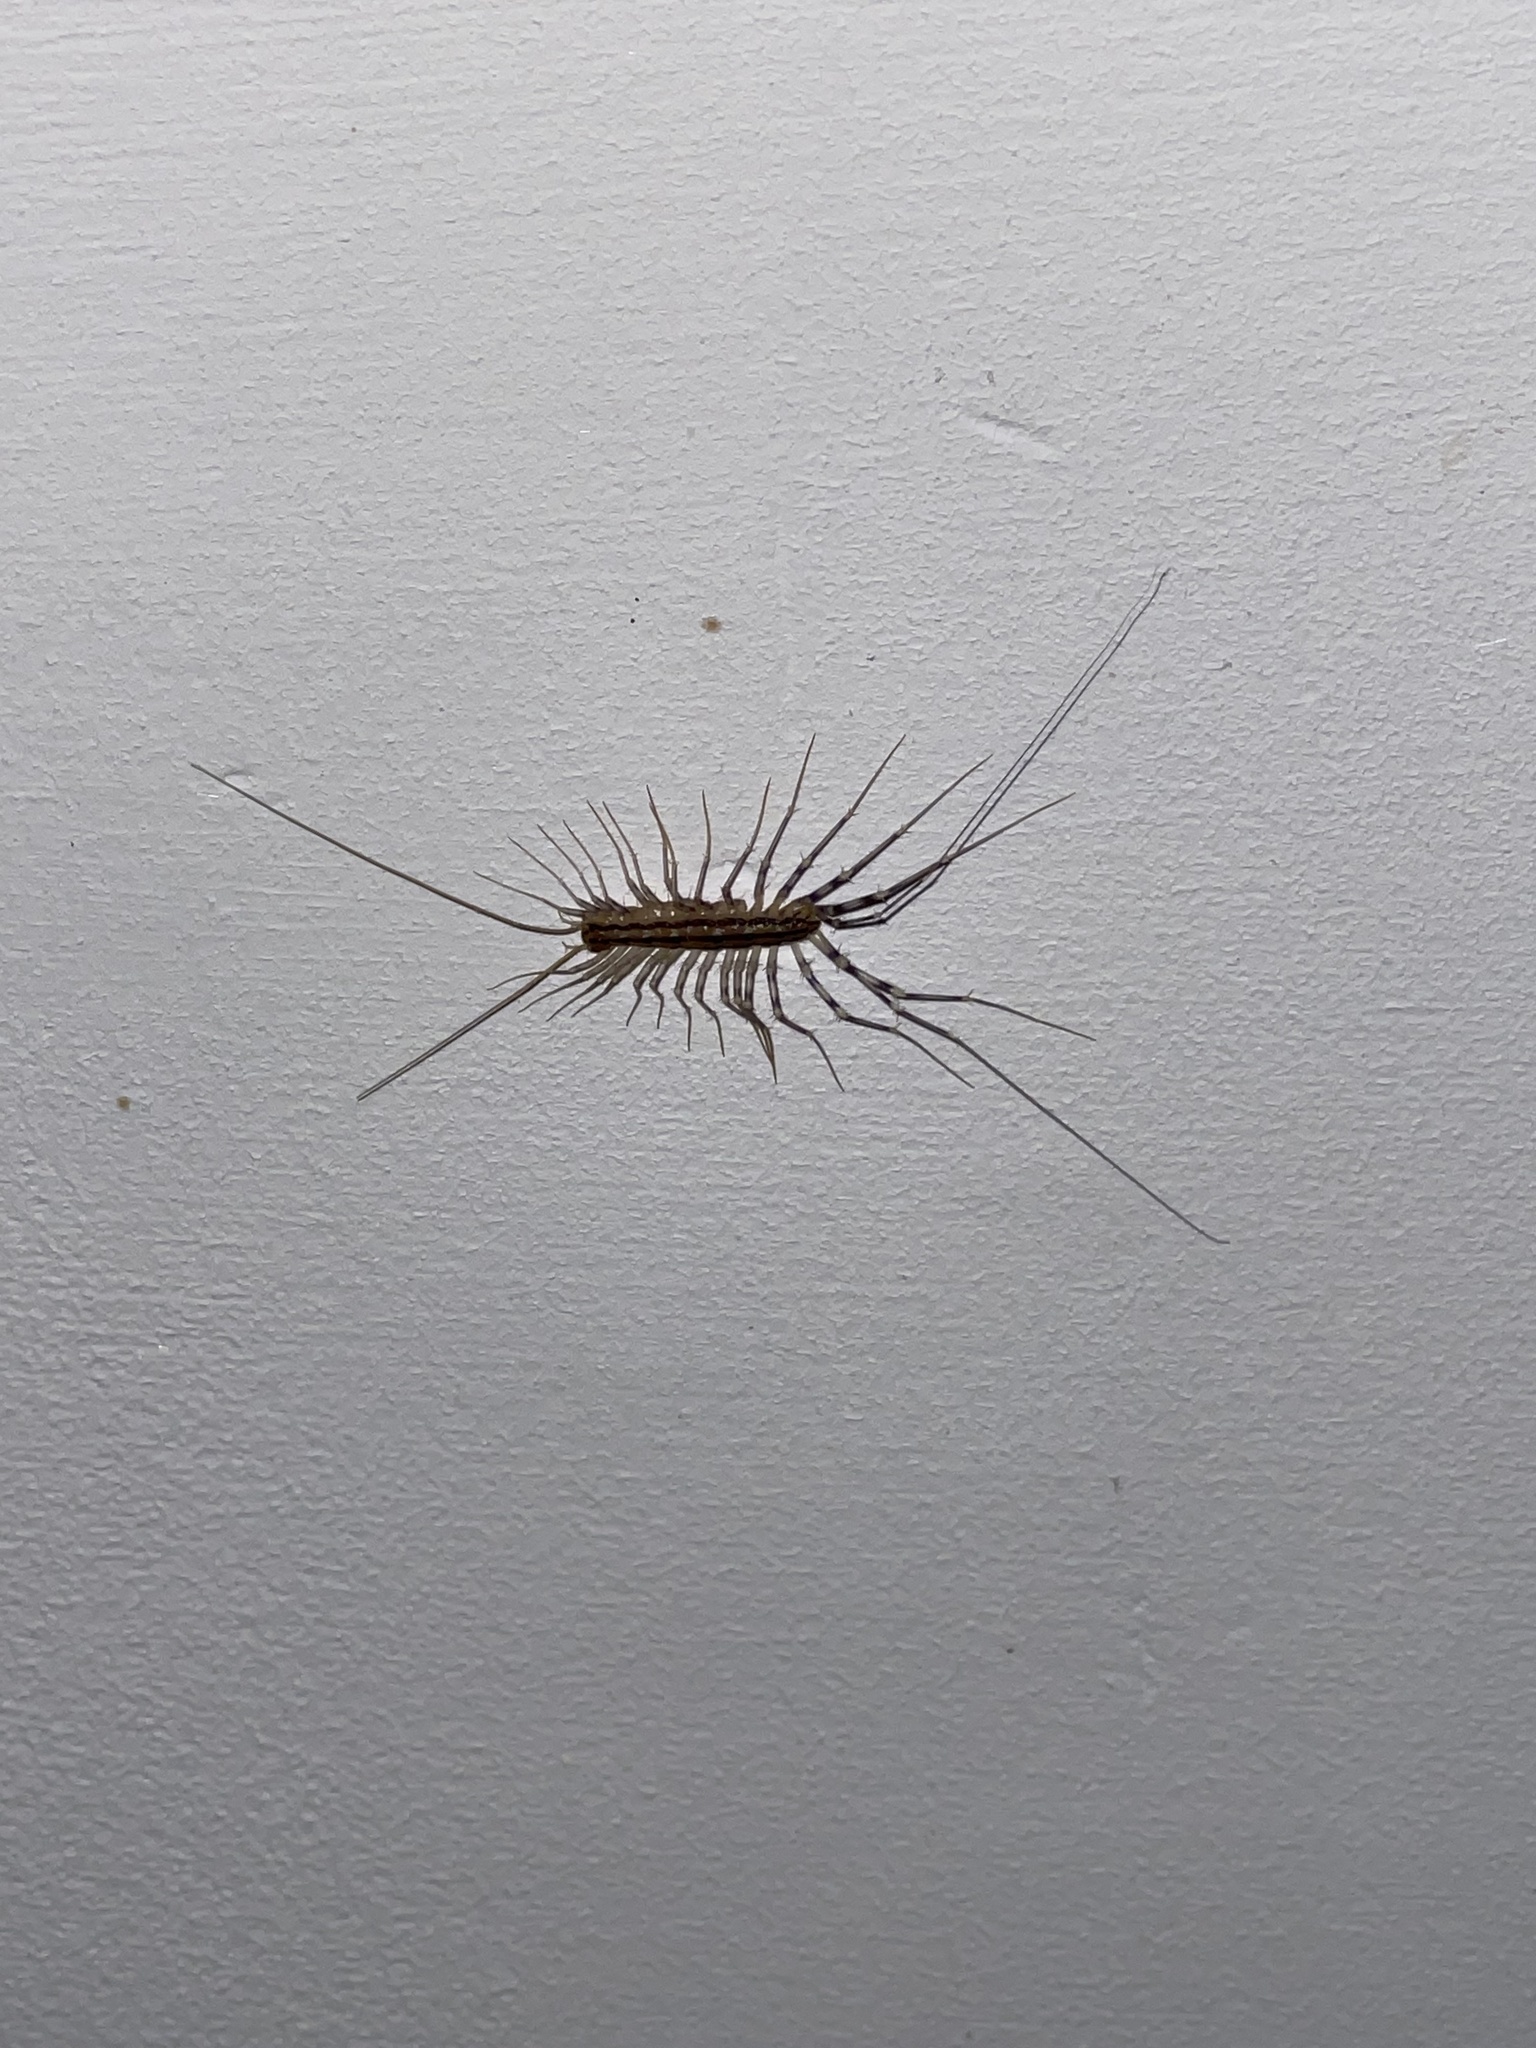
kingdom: Animalia
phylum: Arthropoda
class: Chilopoda
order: Scutigeromorpha
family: Scutigeridae
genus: Scutigera
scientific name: Scutigera coleoptrata
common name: House centipede
